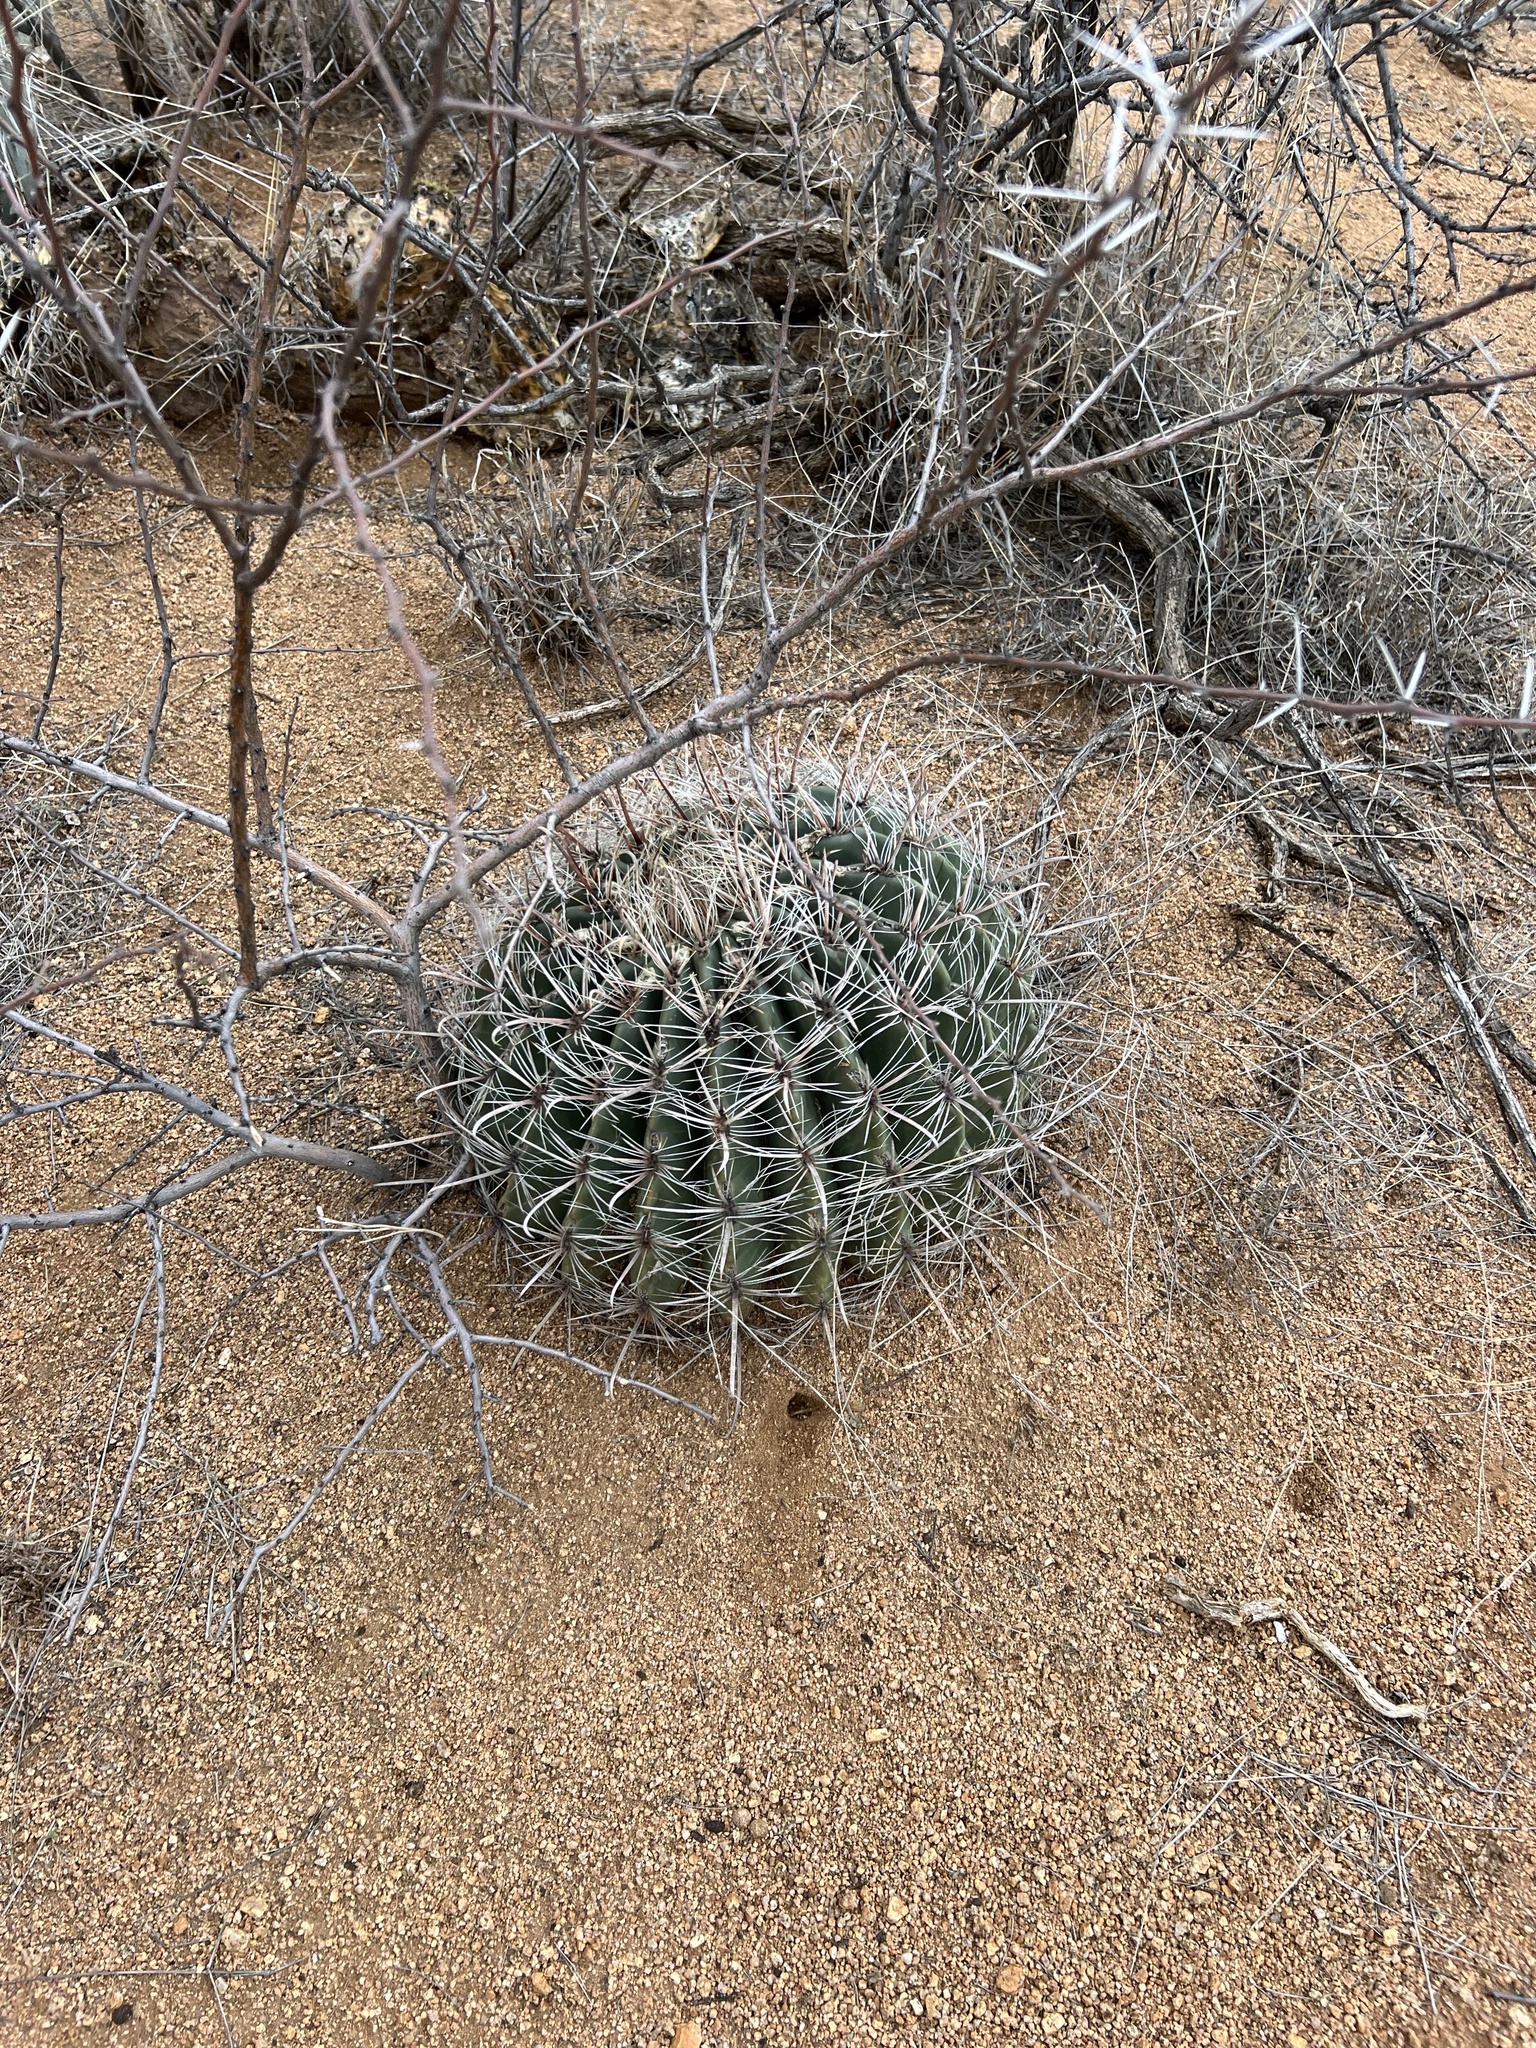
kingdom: Plantae
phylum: Tracheophyta
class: Magnoliopsida
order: Caryophyllales
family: Cactaceae
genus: Ferocactus
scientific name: Ferocactus wislizeni
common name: Candy barrel cactus
